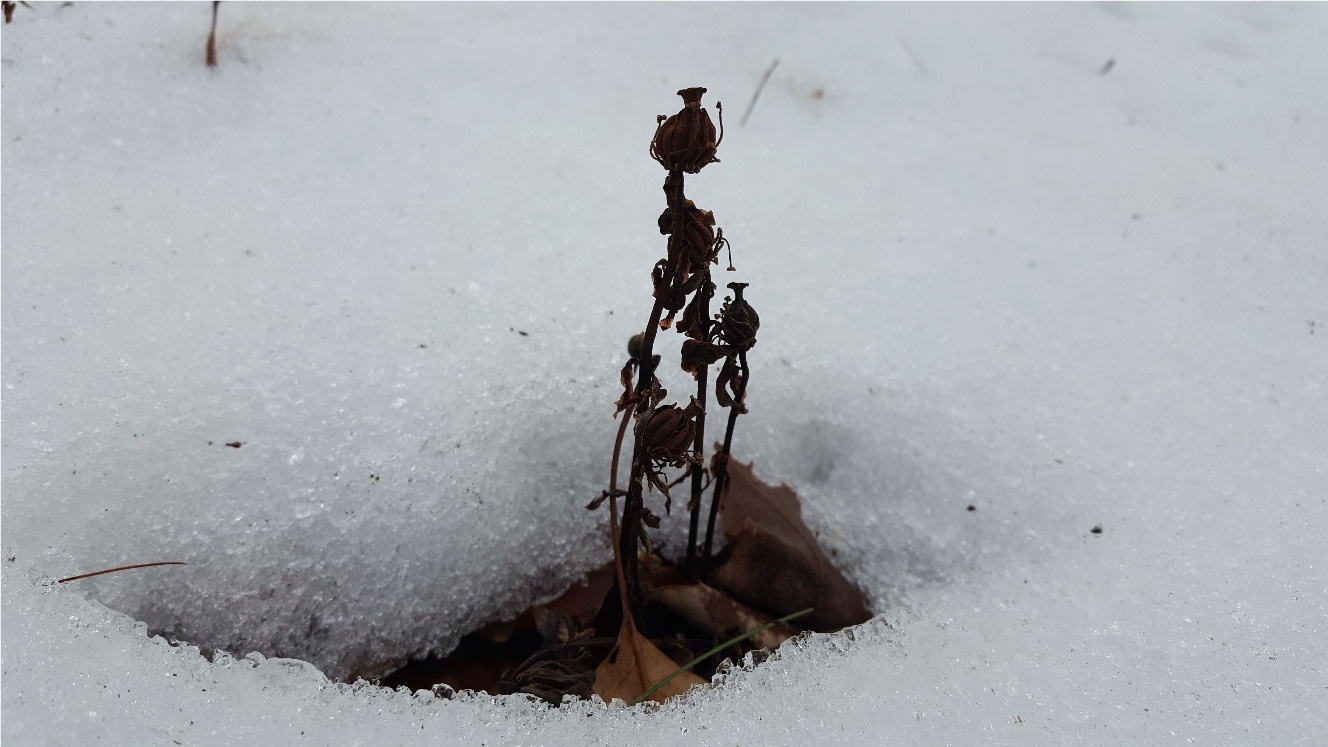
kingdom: Plantae
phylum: Tracheophyta
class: Magnoliopsida
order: Ericales
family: Ericaceae
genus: Monotropa
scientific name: Monotropa uniflora
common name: Convulsion root
